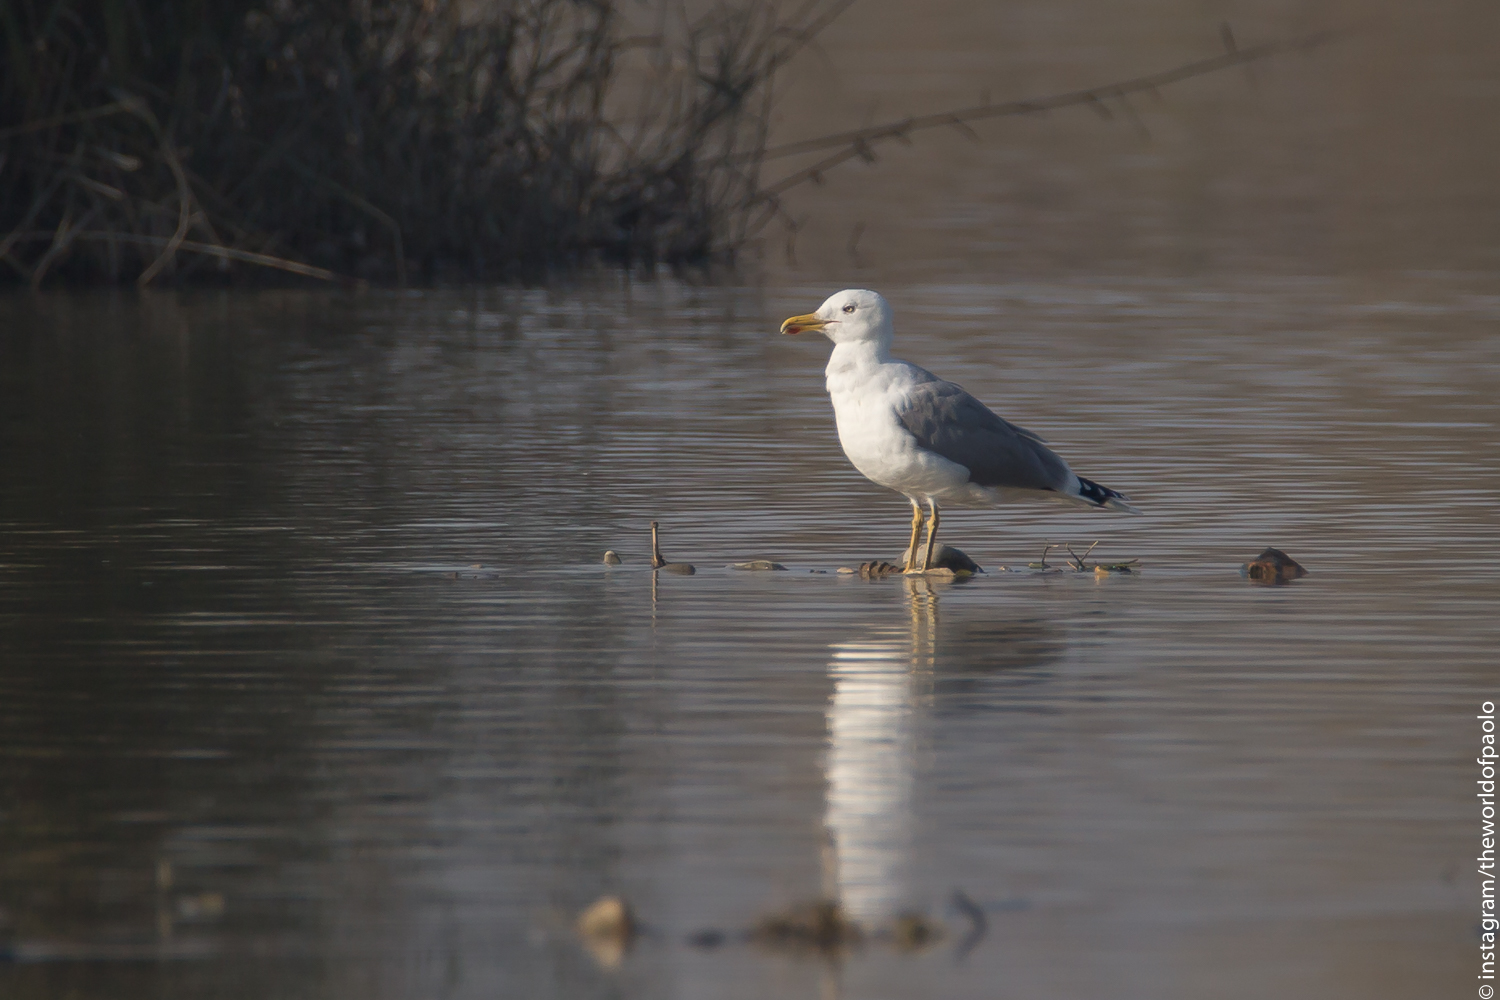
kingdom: Animalia
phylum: Chordata
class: Aves
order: Charadriiformes
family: Laridae
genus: Larus
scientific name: Larus michahellis
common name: Yellow-legged gull
